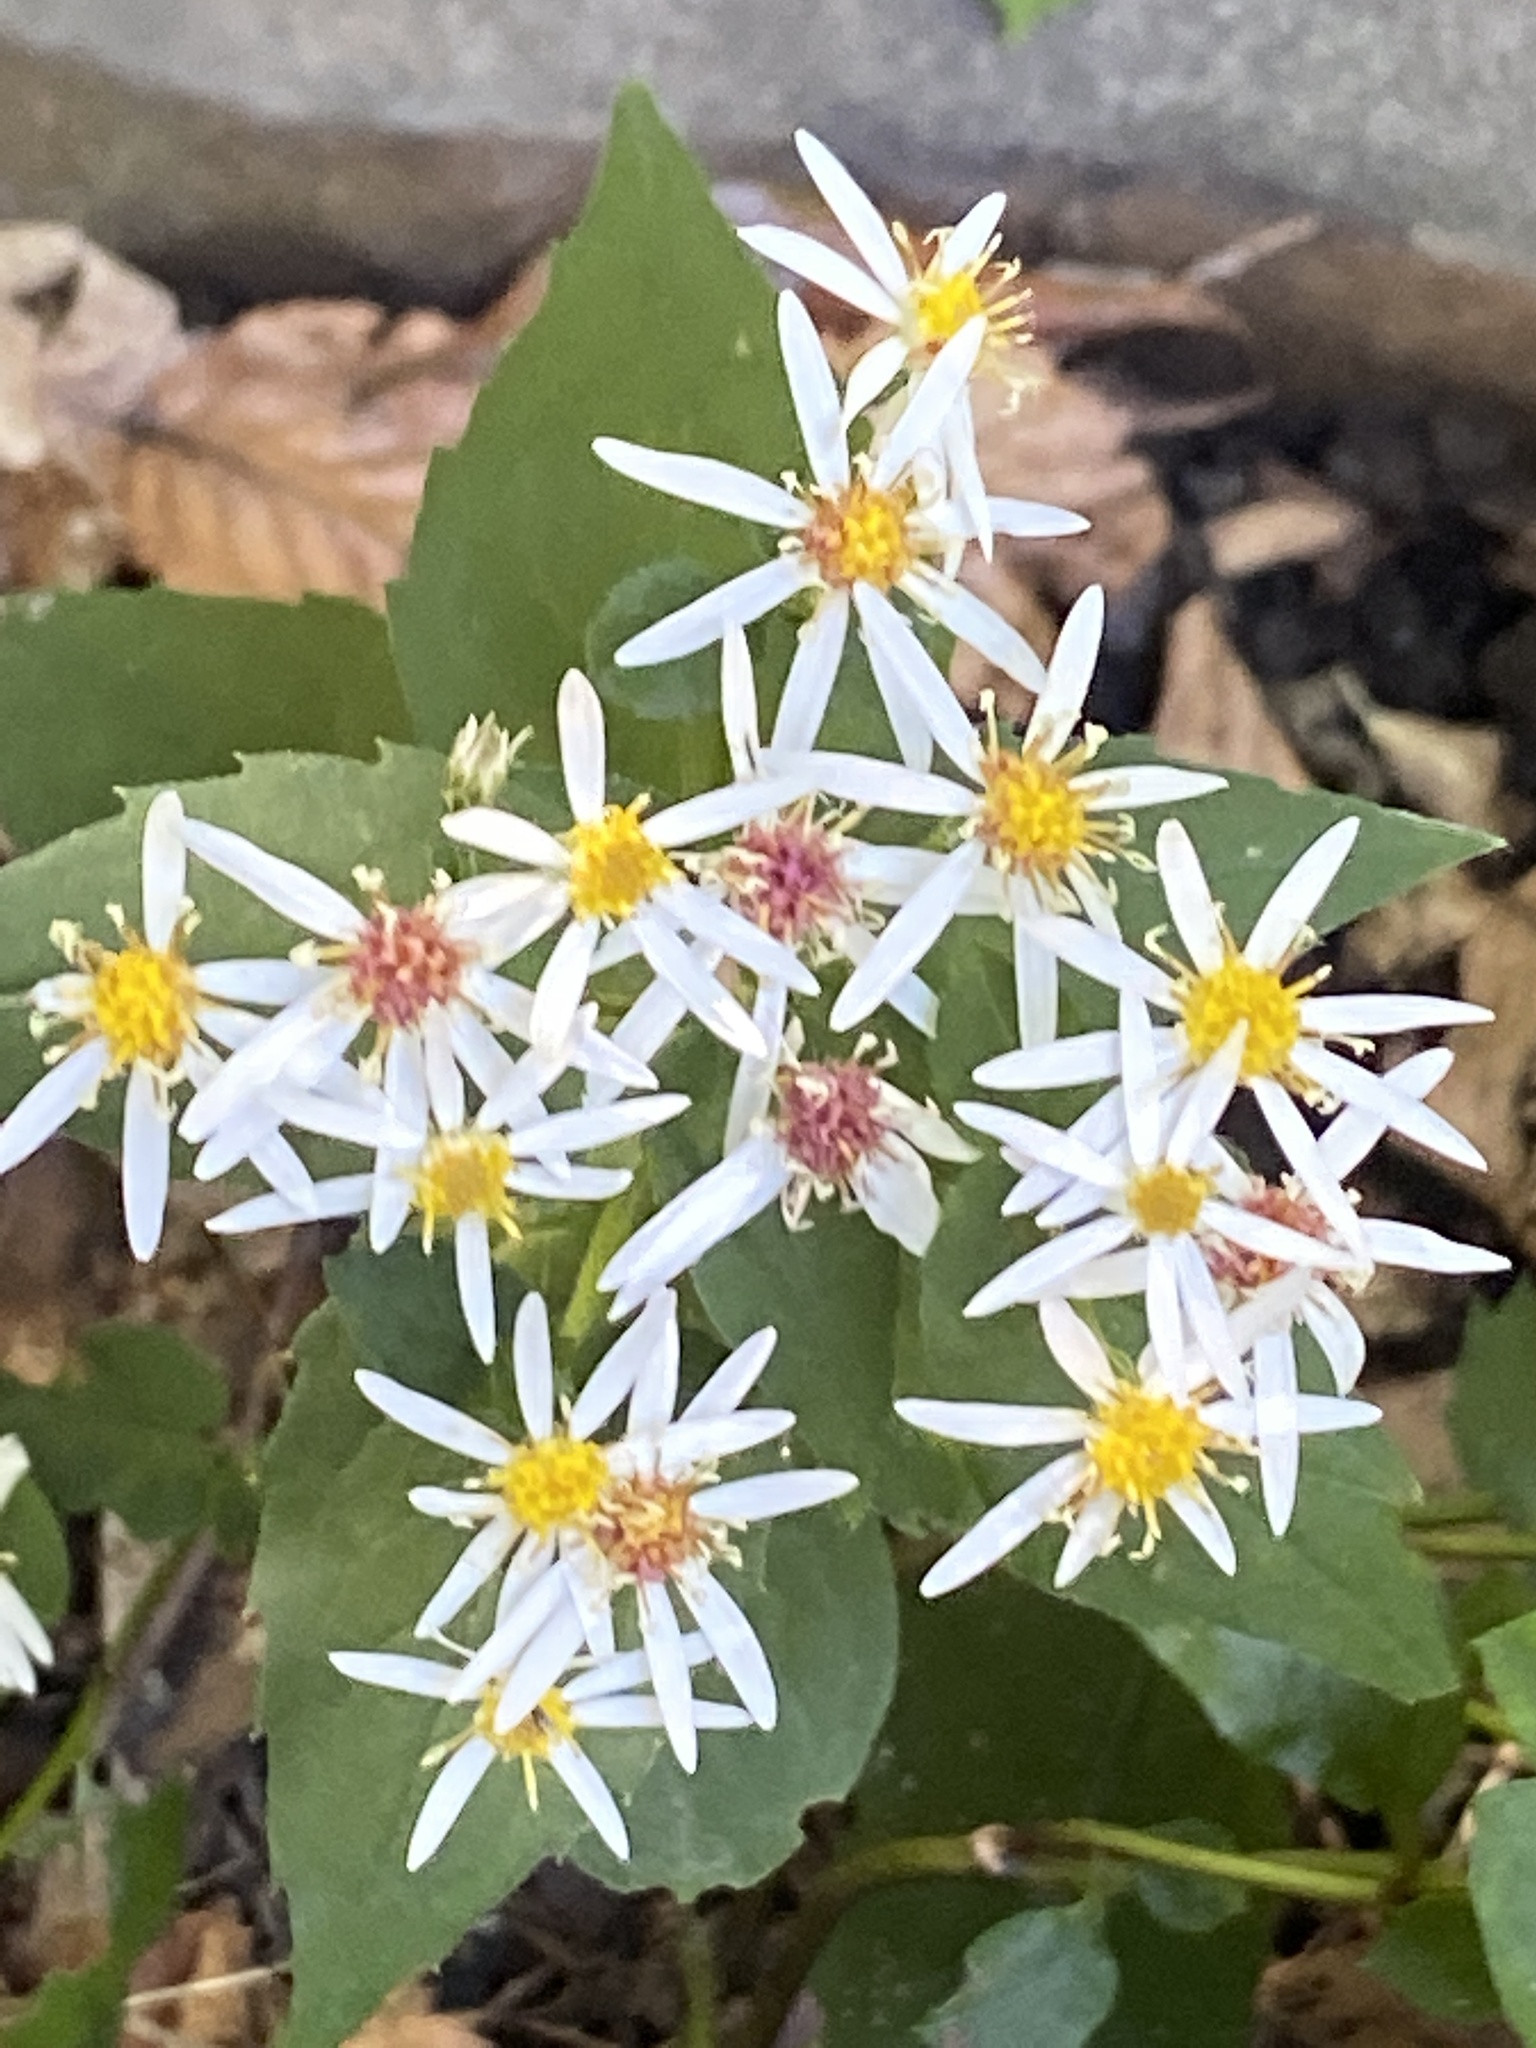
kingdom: Plantae
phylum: Tracheophyta
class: Magnoliopsida
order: Asterales
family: Asteraceae
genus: Eurybia
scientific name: Eurybia divaricata
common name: White wood aster
